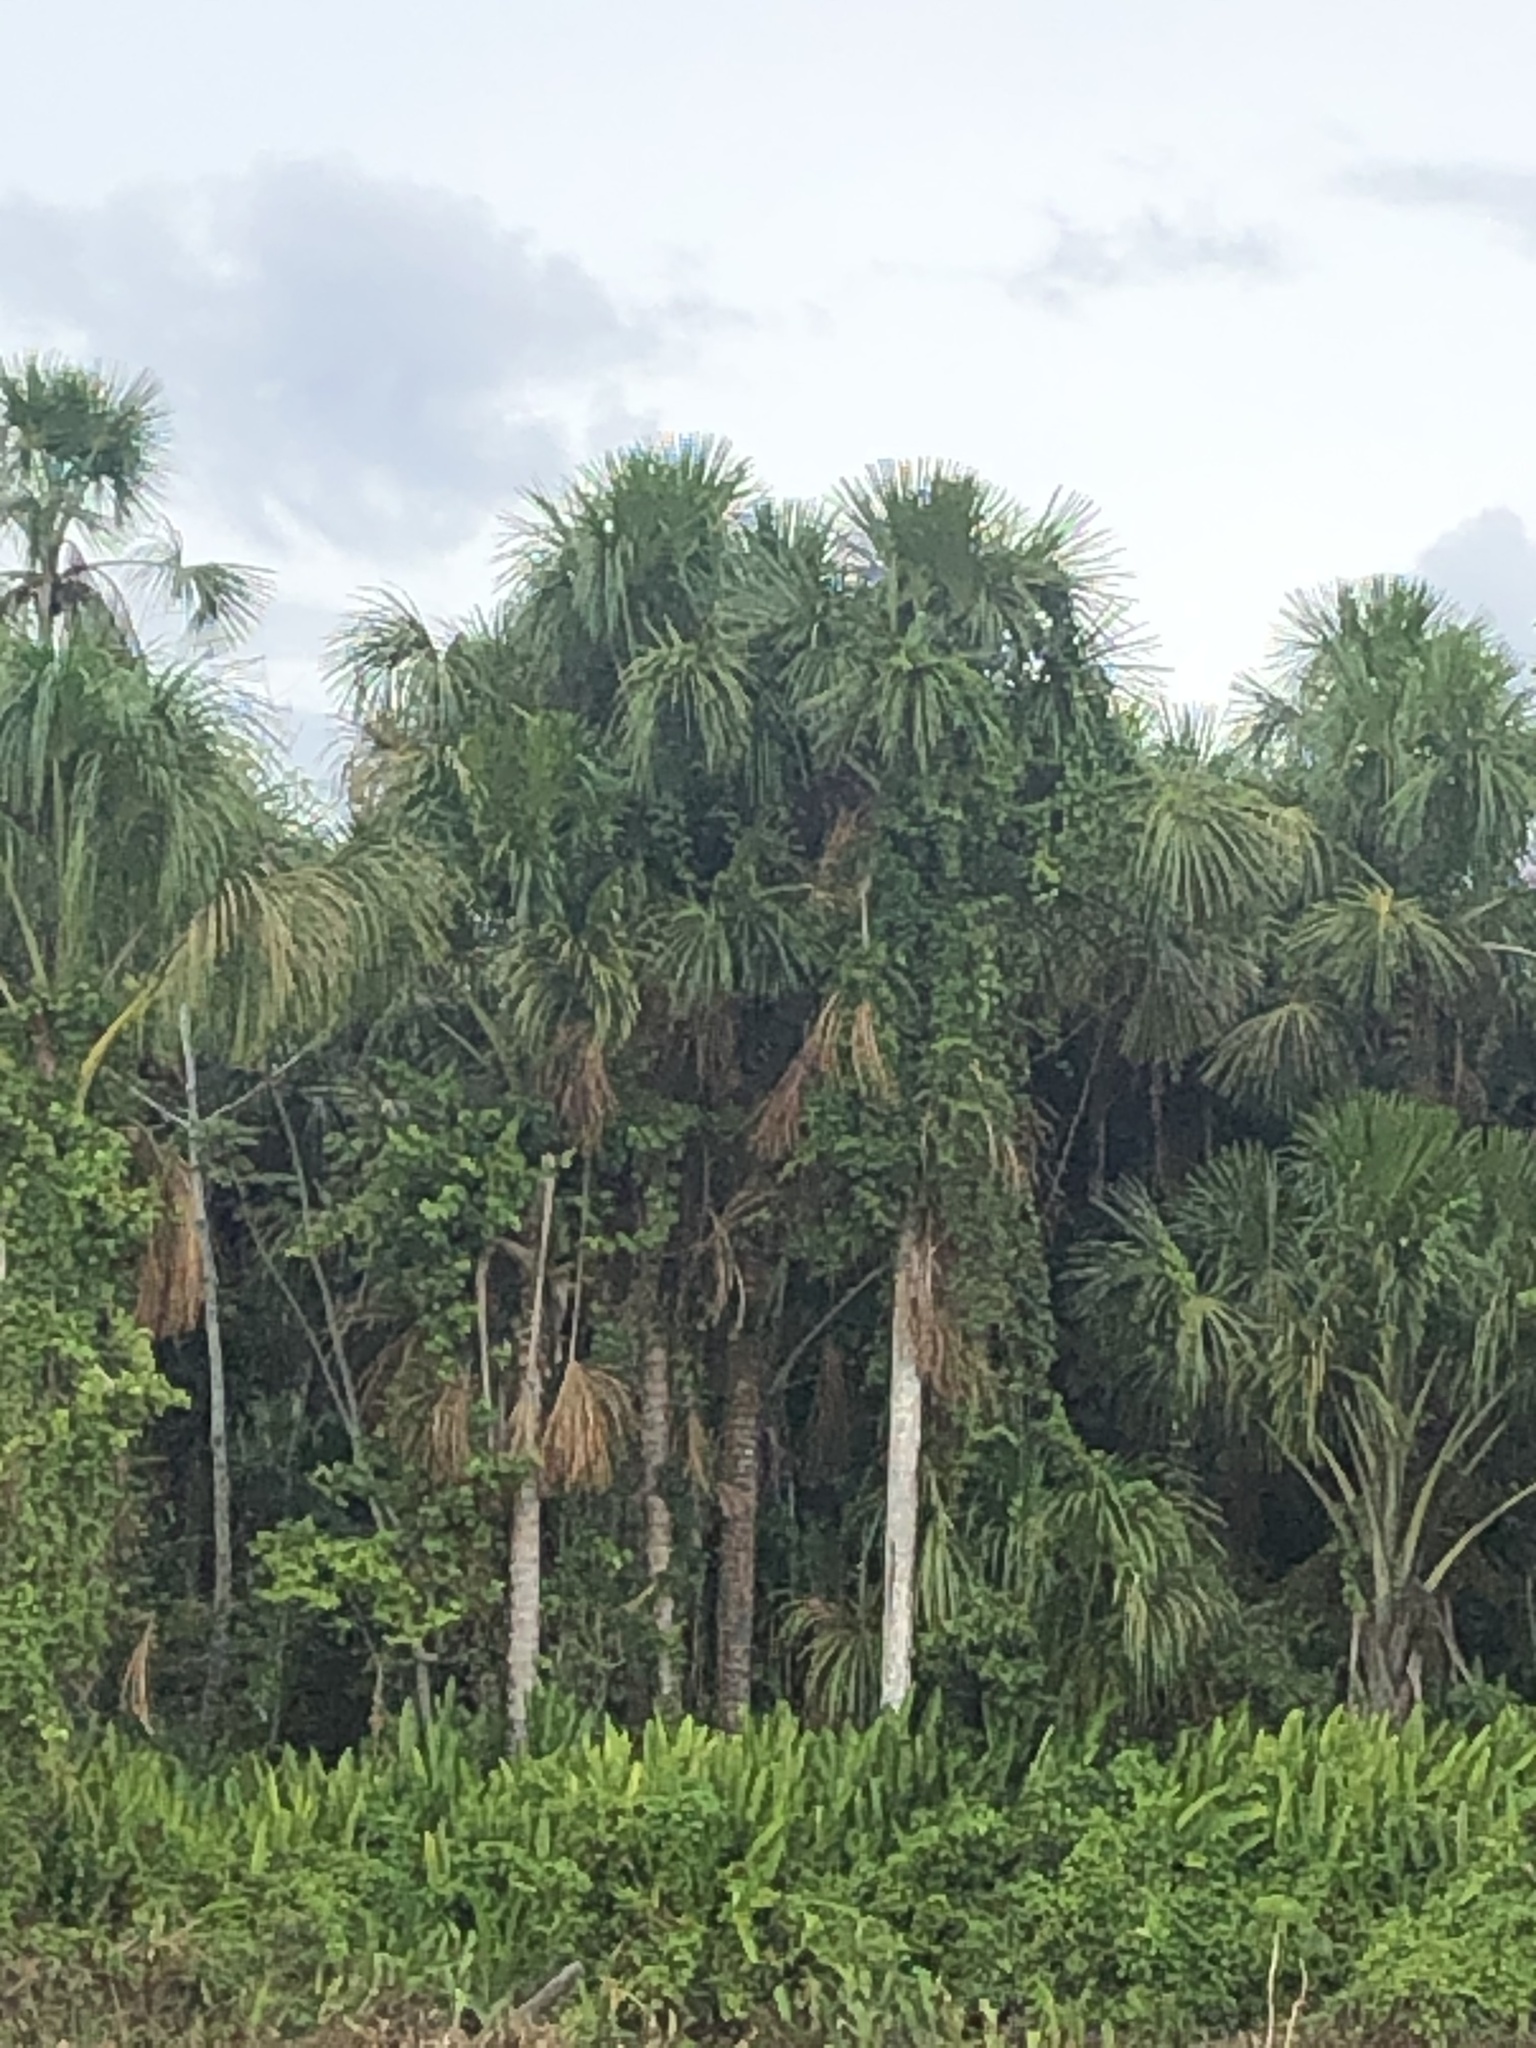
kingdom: Plantae
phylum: Tracheophyta
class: Liliopsida
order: Arecales
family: Arecaceae
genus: Mauritia
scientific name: Mauritia flexuosa
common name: Tree-of-life
